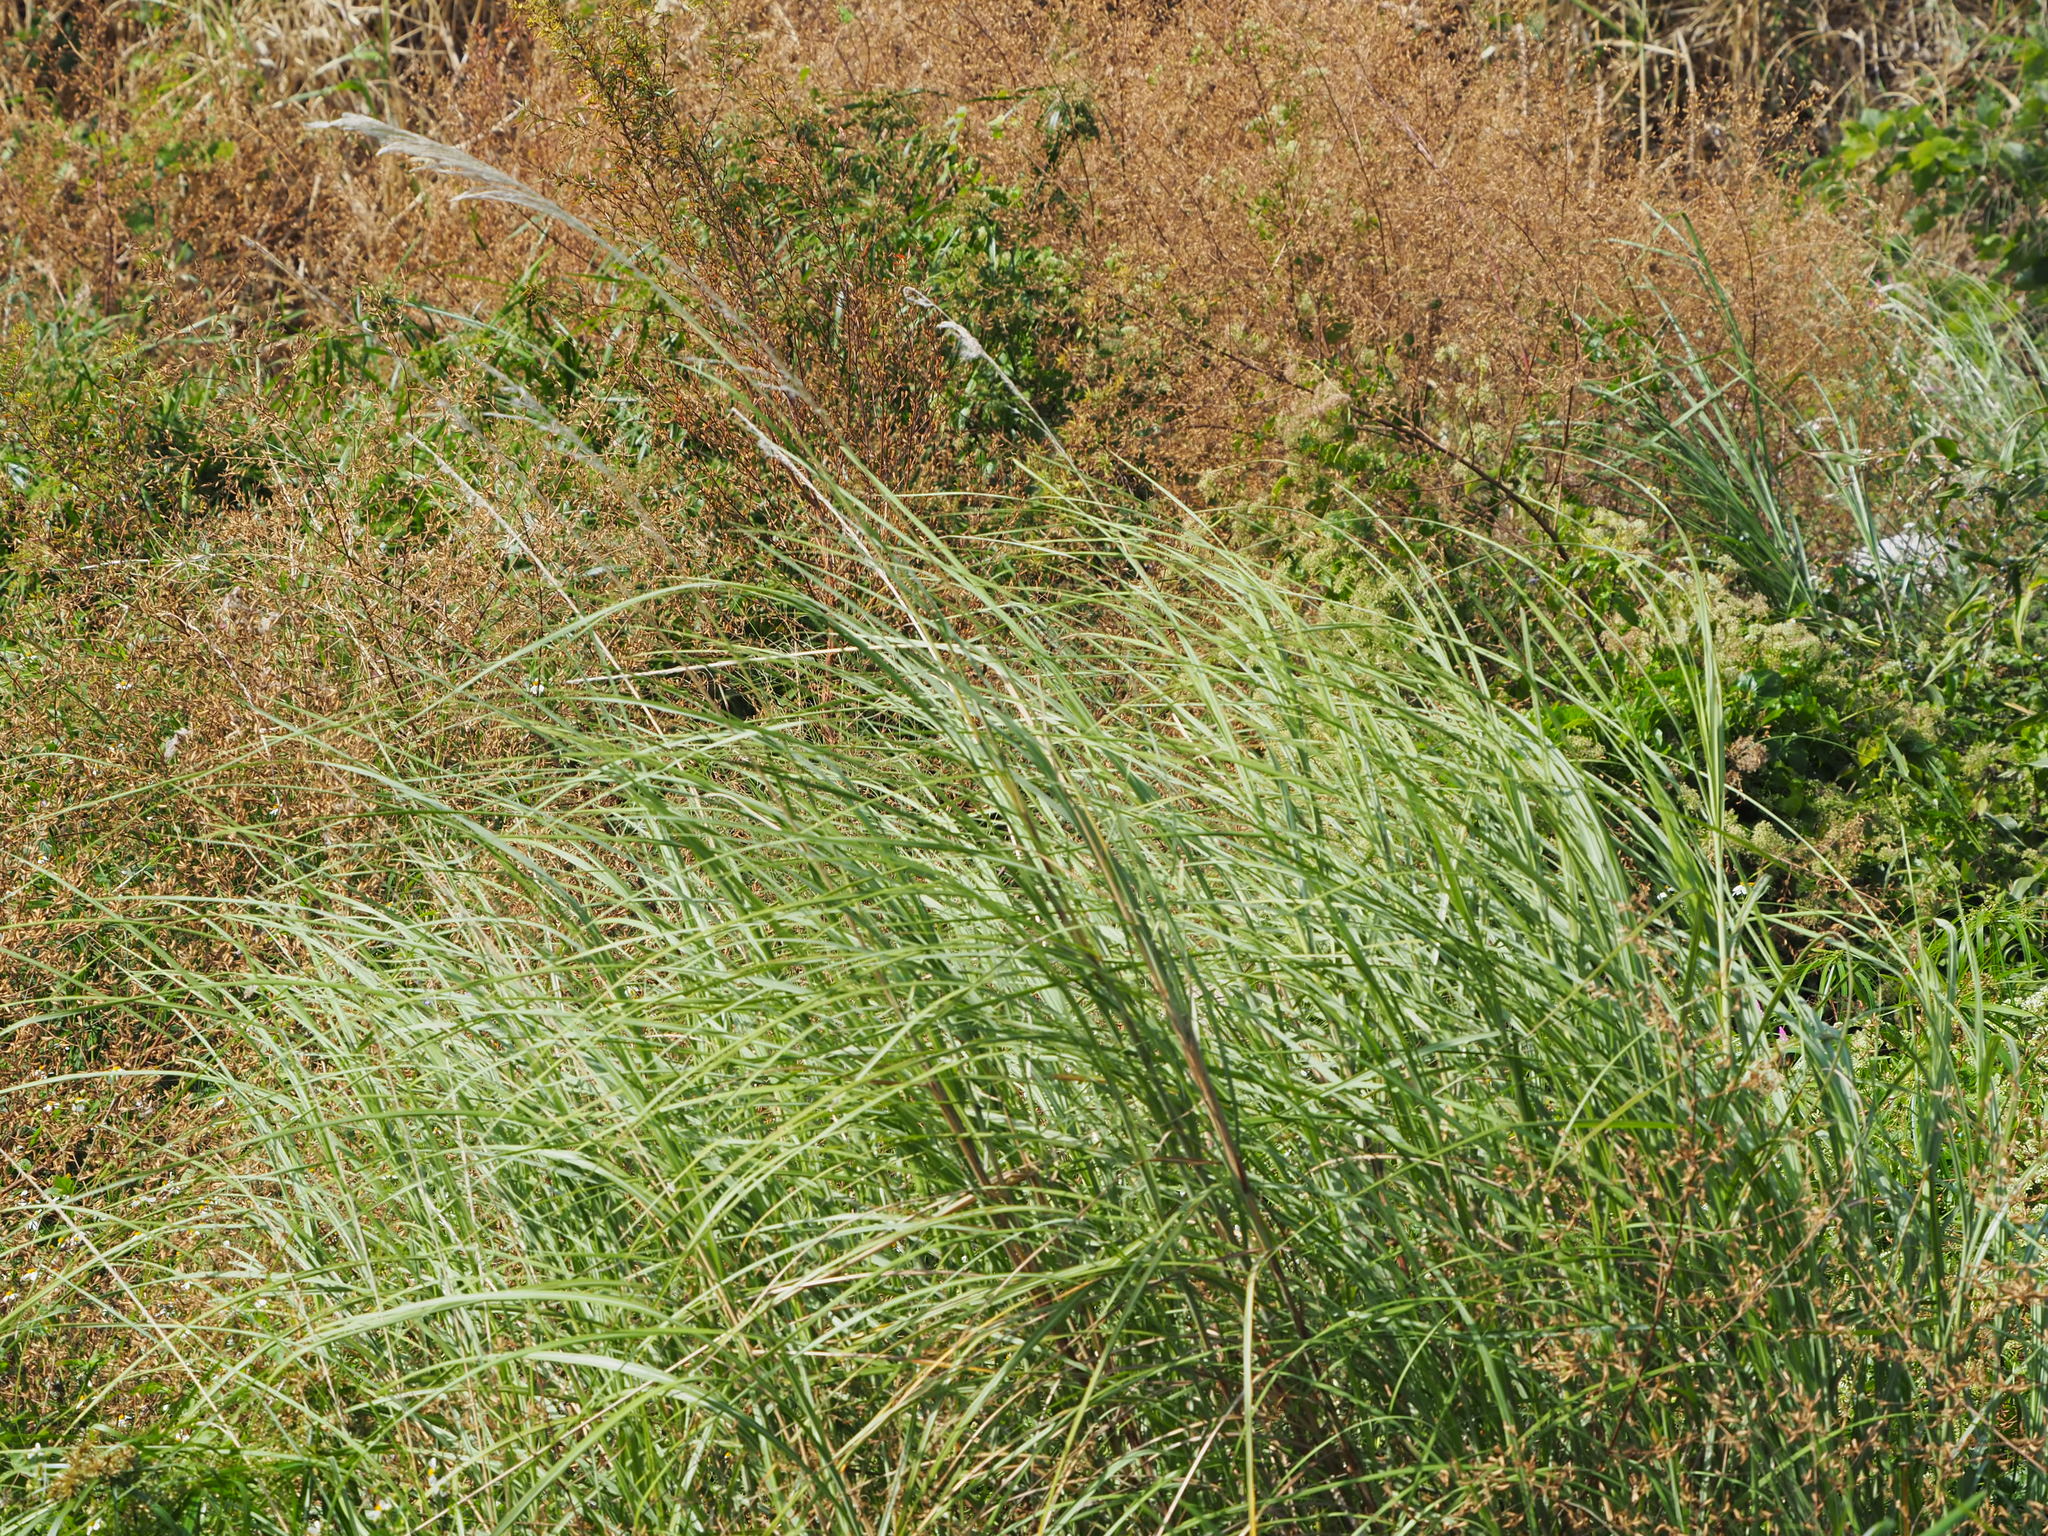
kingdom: Plantae
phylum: Tracheophyta
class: Liliopsida
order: Poales
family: Poaceae
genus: Saccharum
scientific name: Saccharum spontaneum
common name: Wild sugarcane
